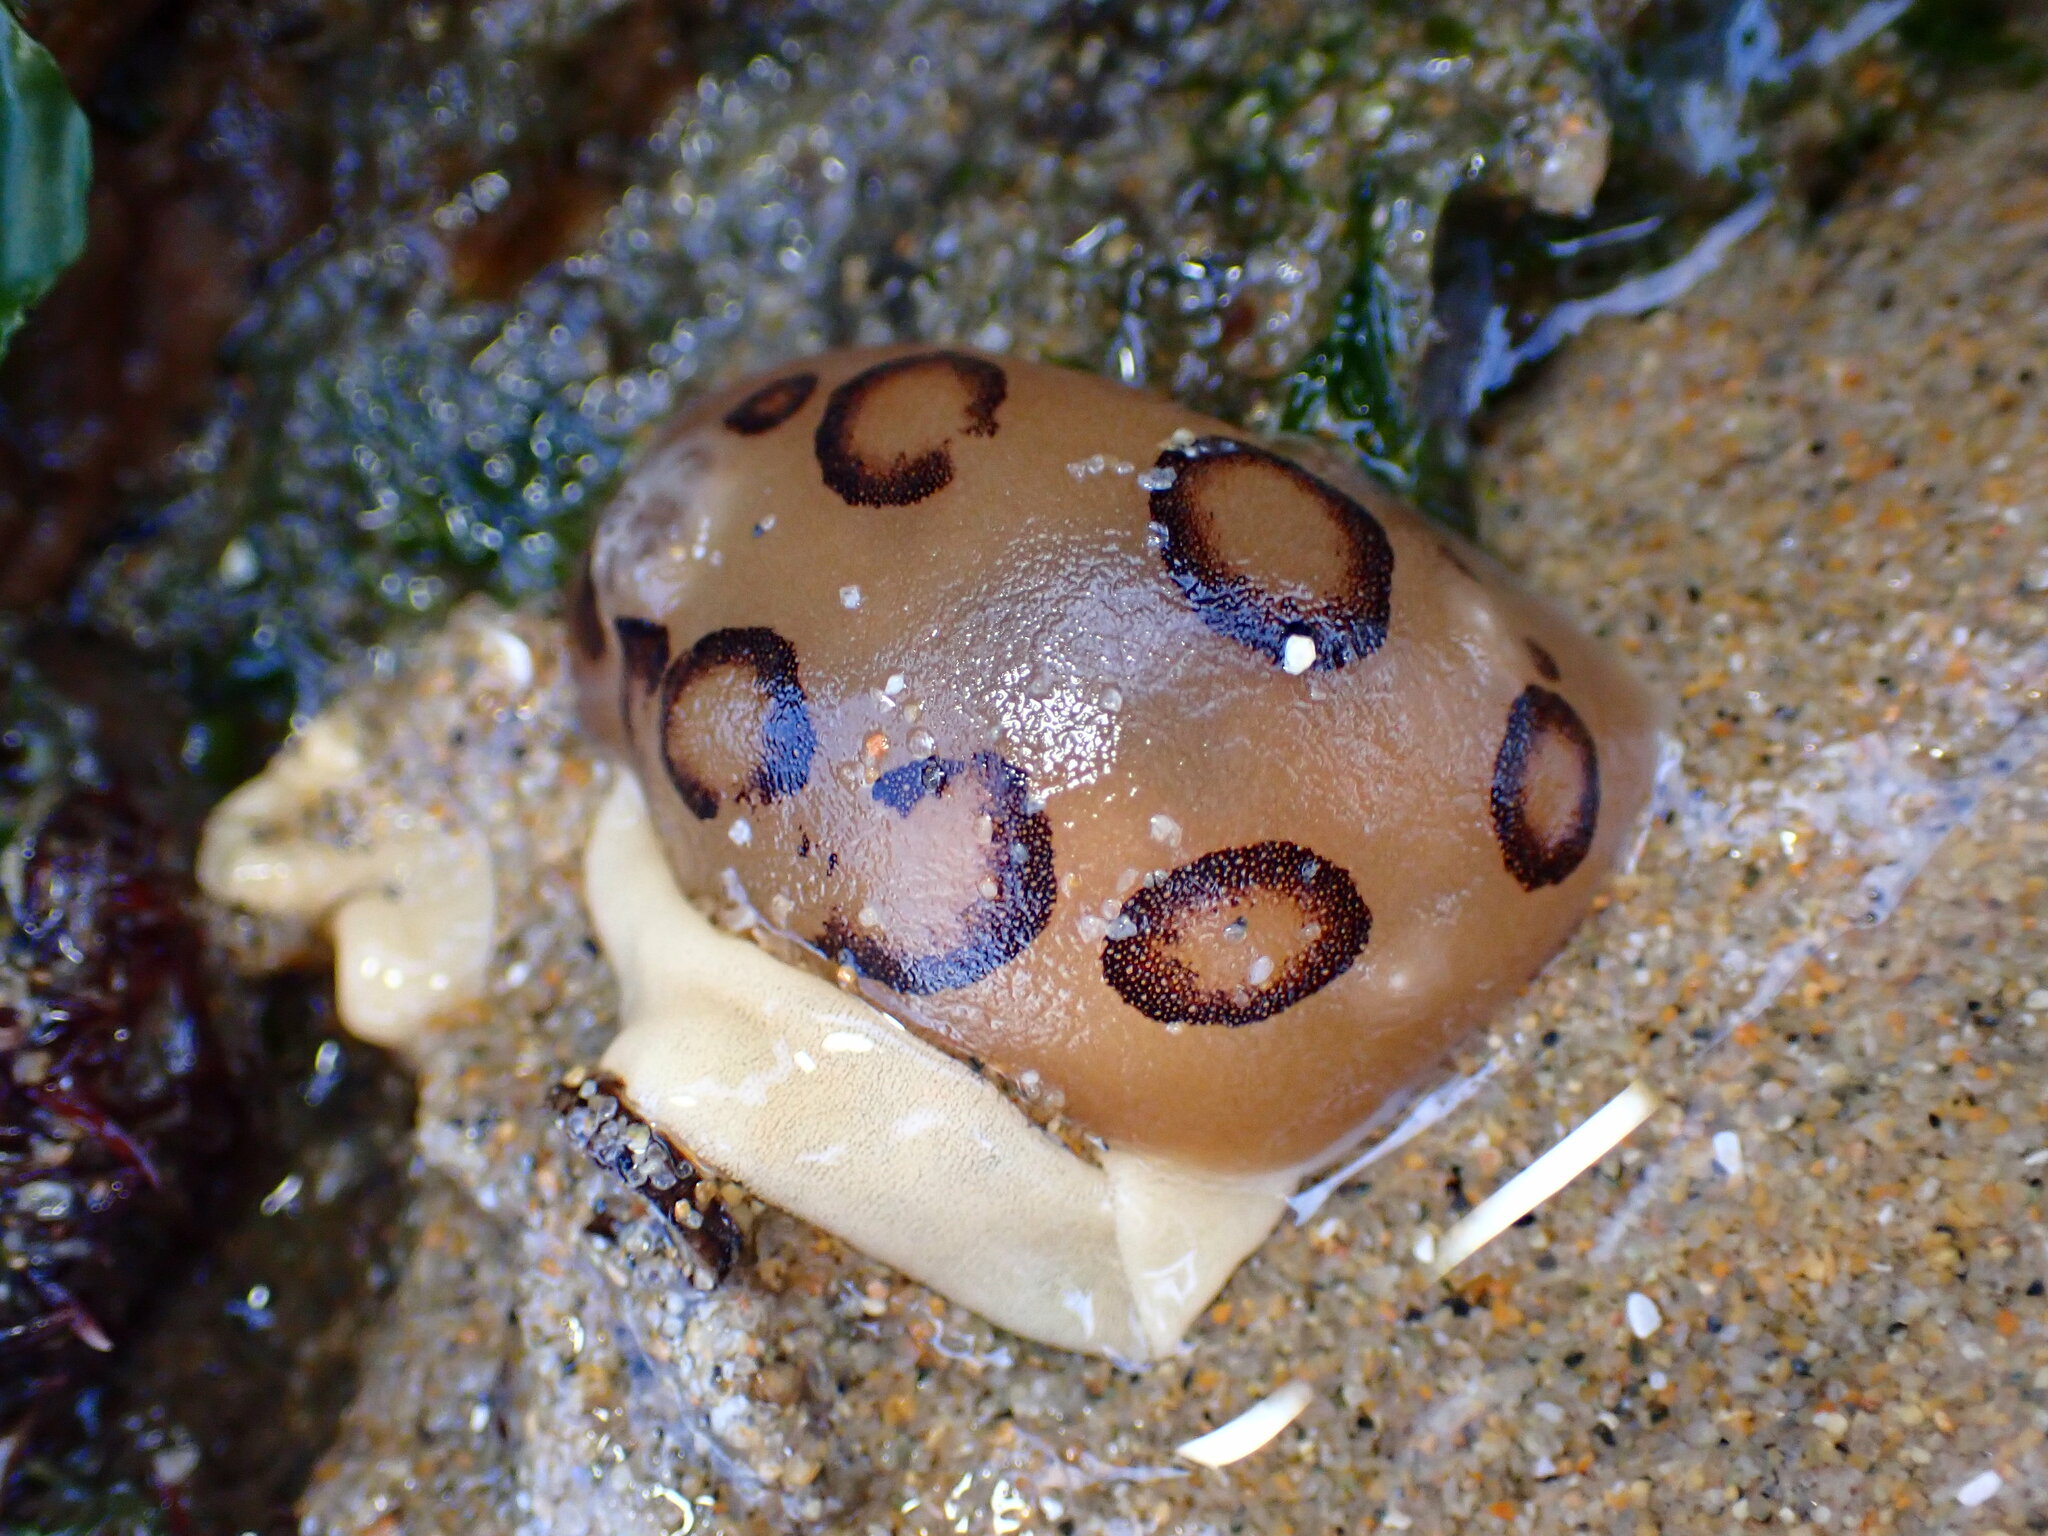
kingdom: Animalia
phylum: Mollusca
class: Gastropoda
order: Nudibranchia
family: Discodorididae
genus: Diaulula
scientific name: Diaulula sandiegensis
